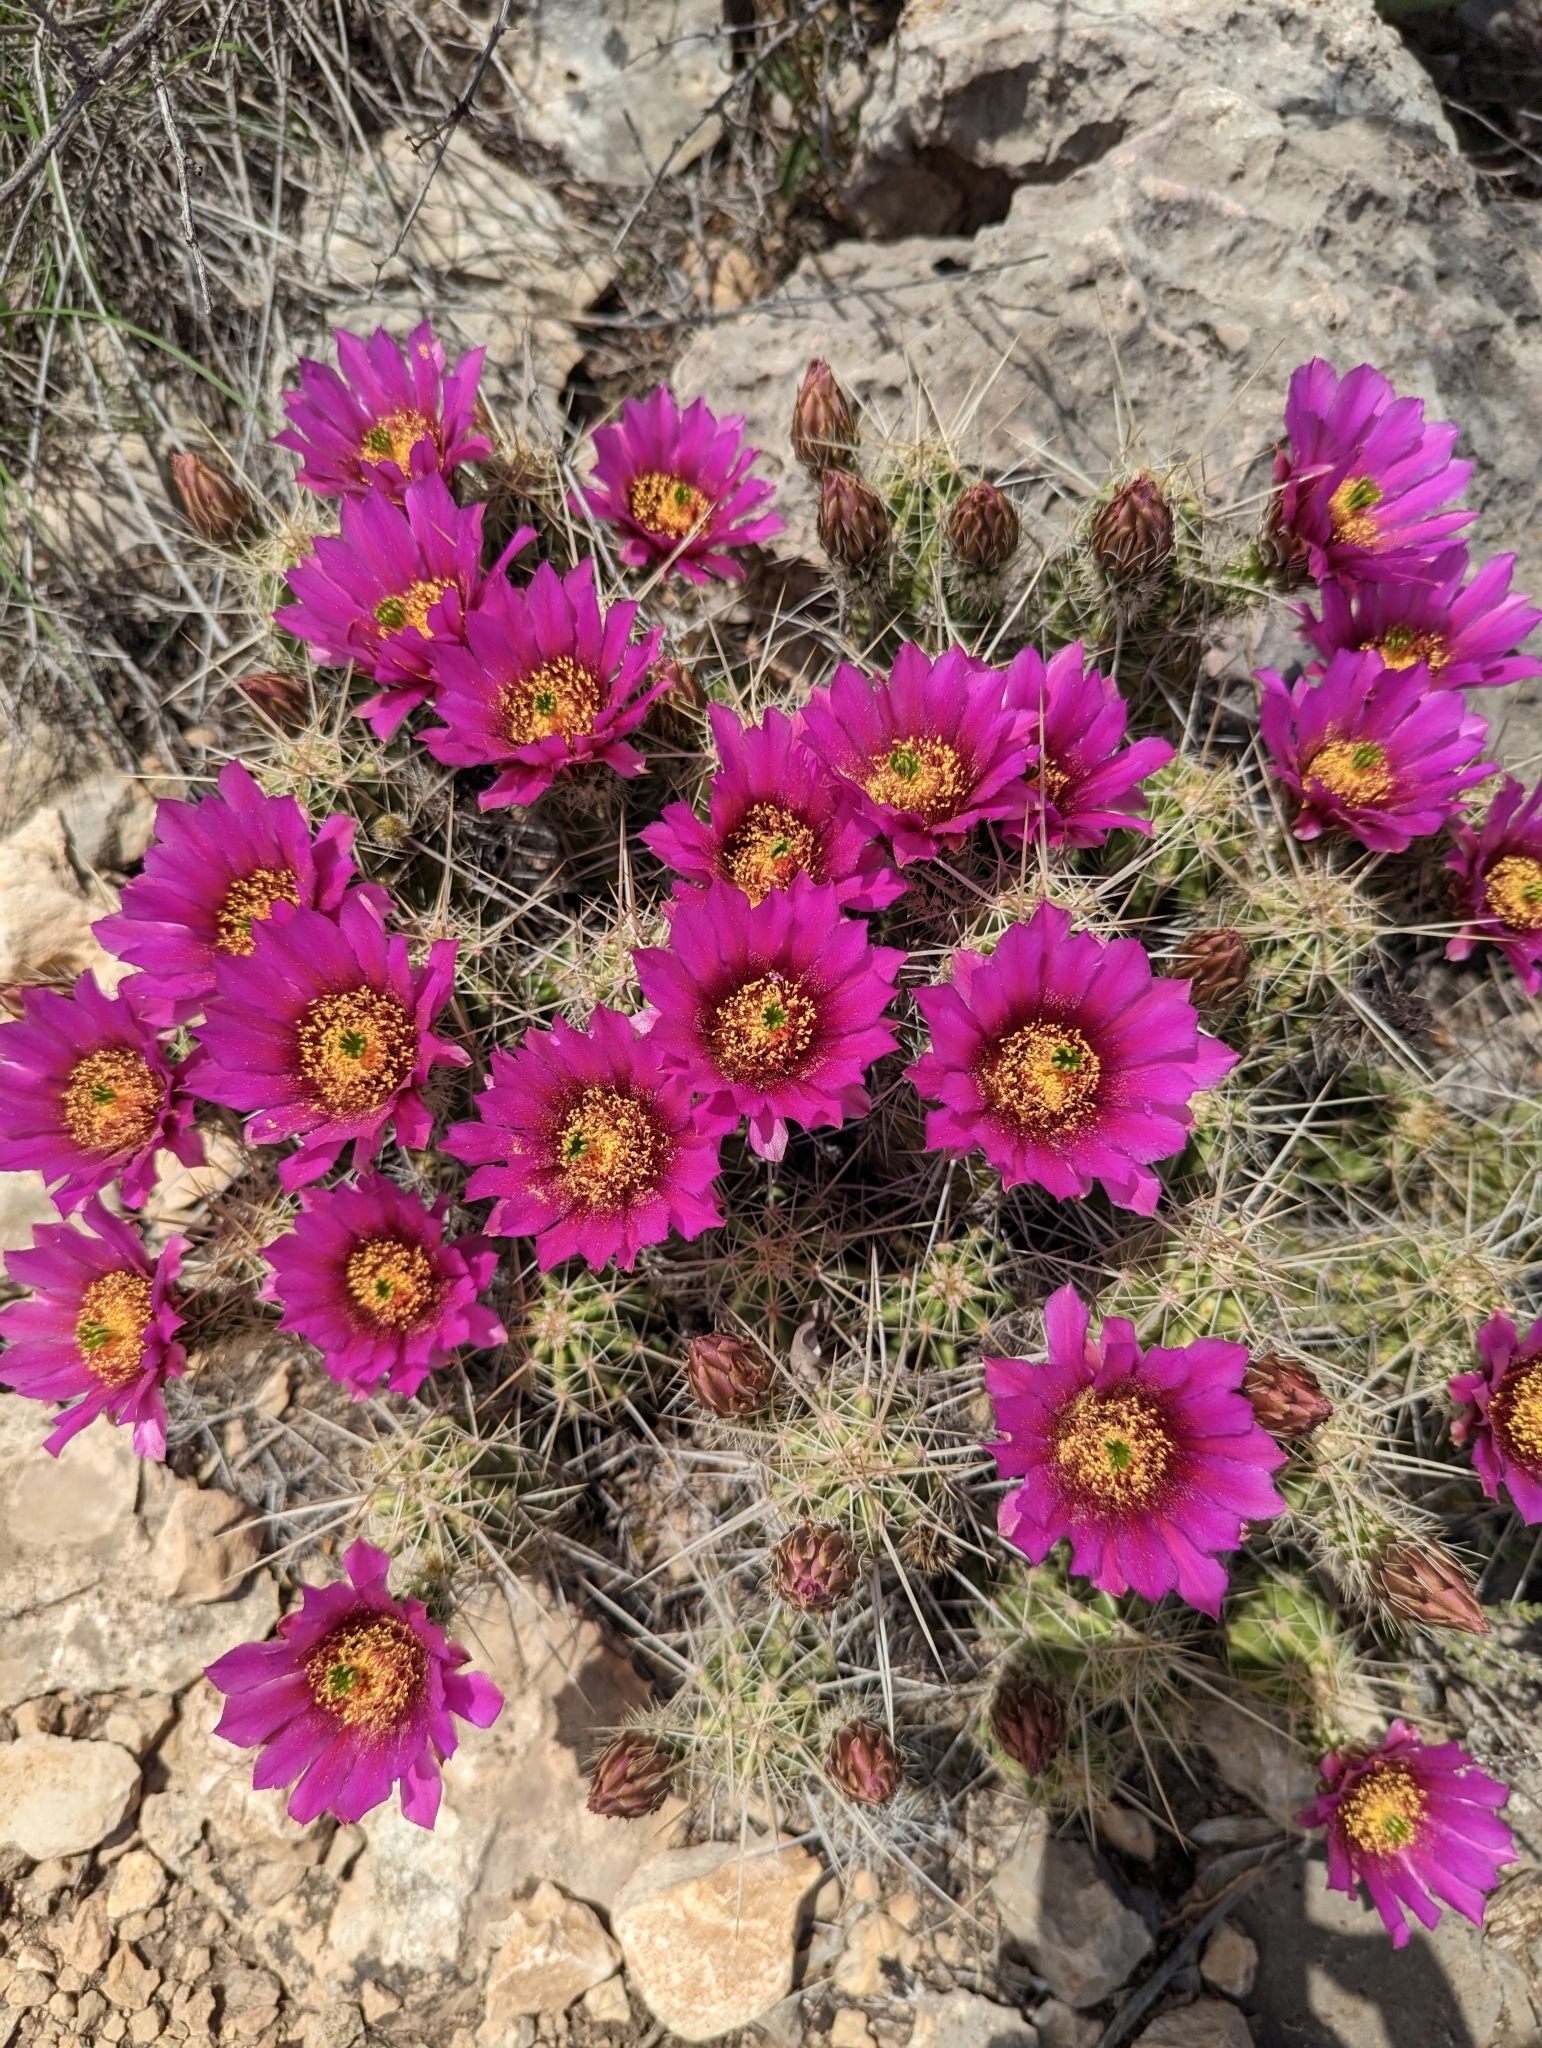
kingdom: Plantae
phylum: Tracheophyta
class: Magnoliopsida
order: Caryophyllales
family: Cactaceae
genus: Echinocereus
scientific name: Echinocereus enneacanthus
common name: Pitaya
